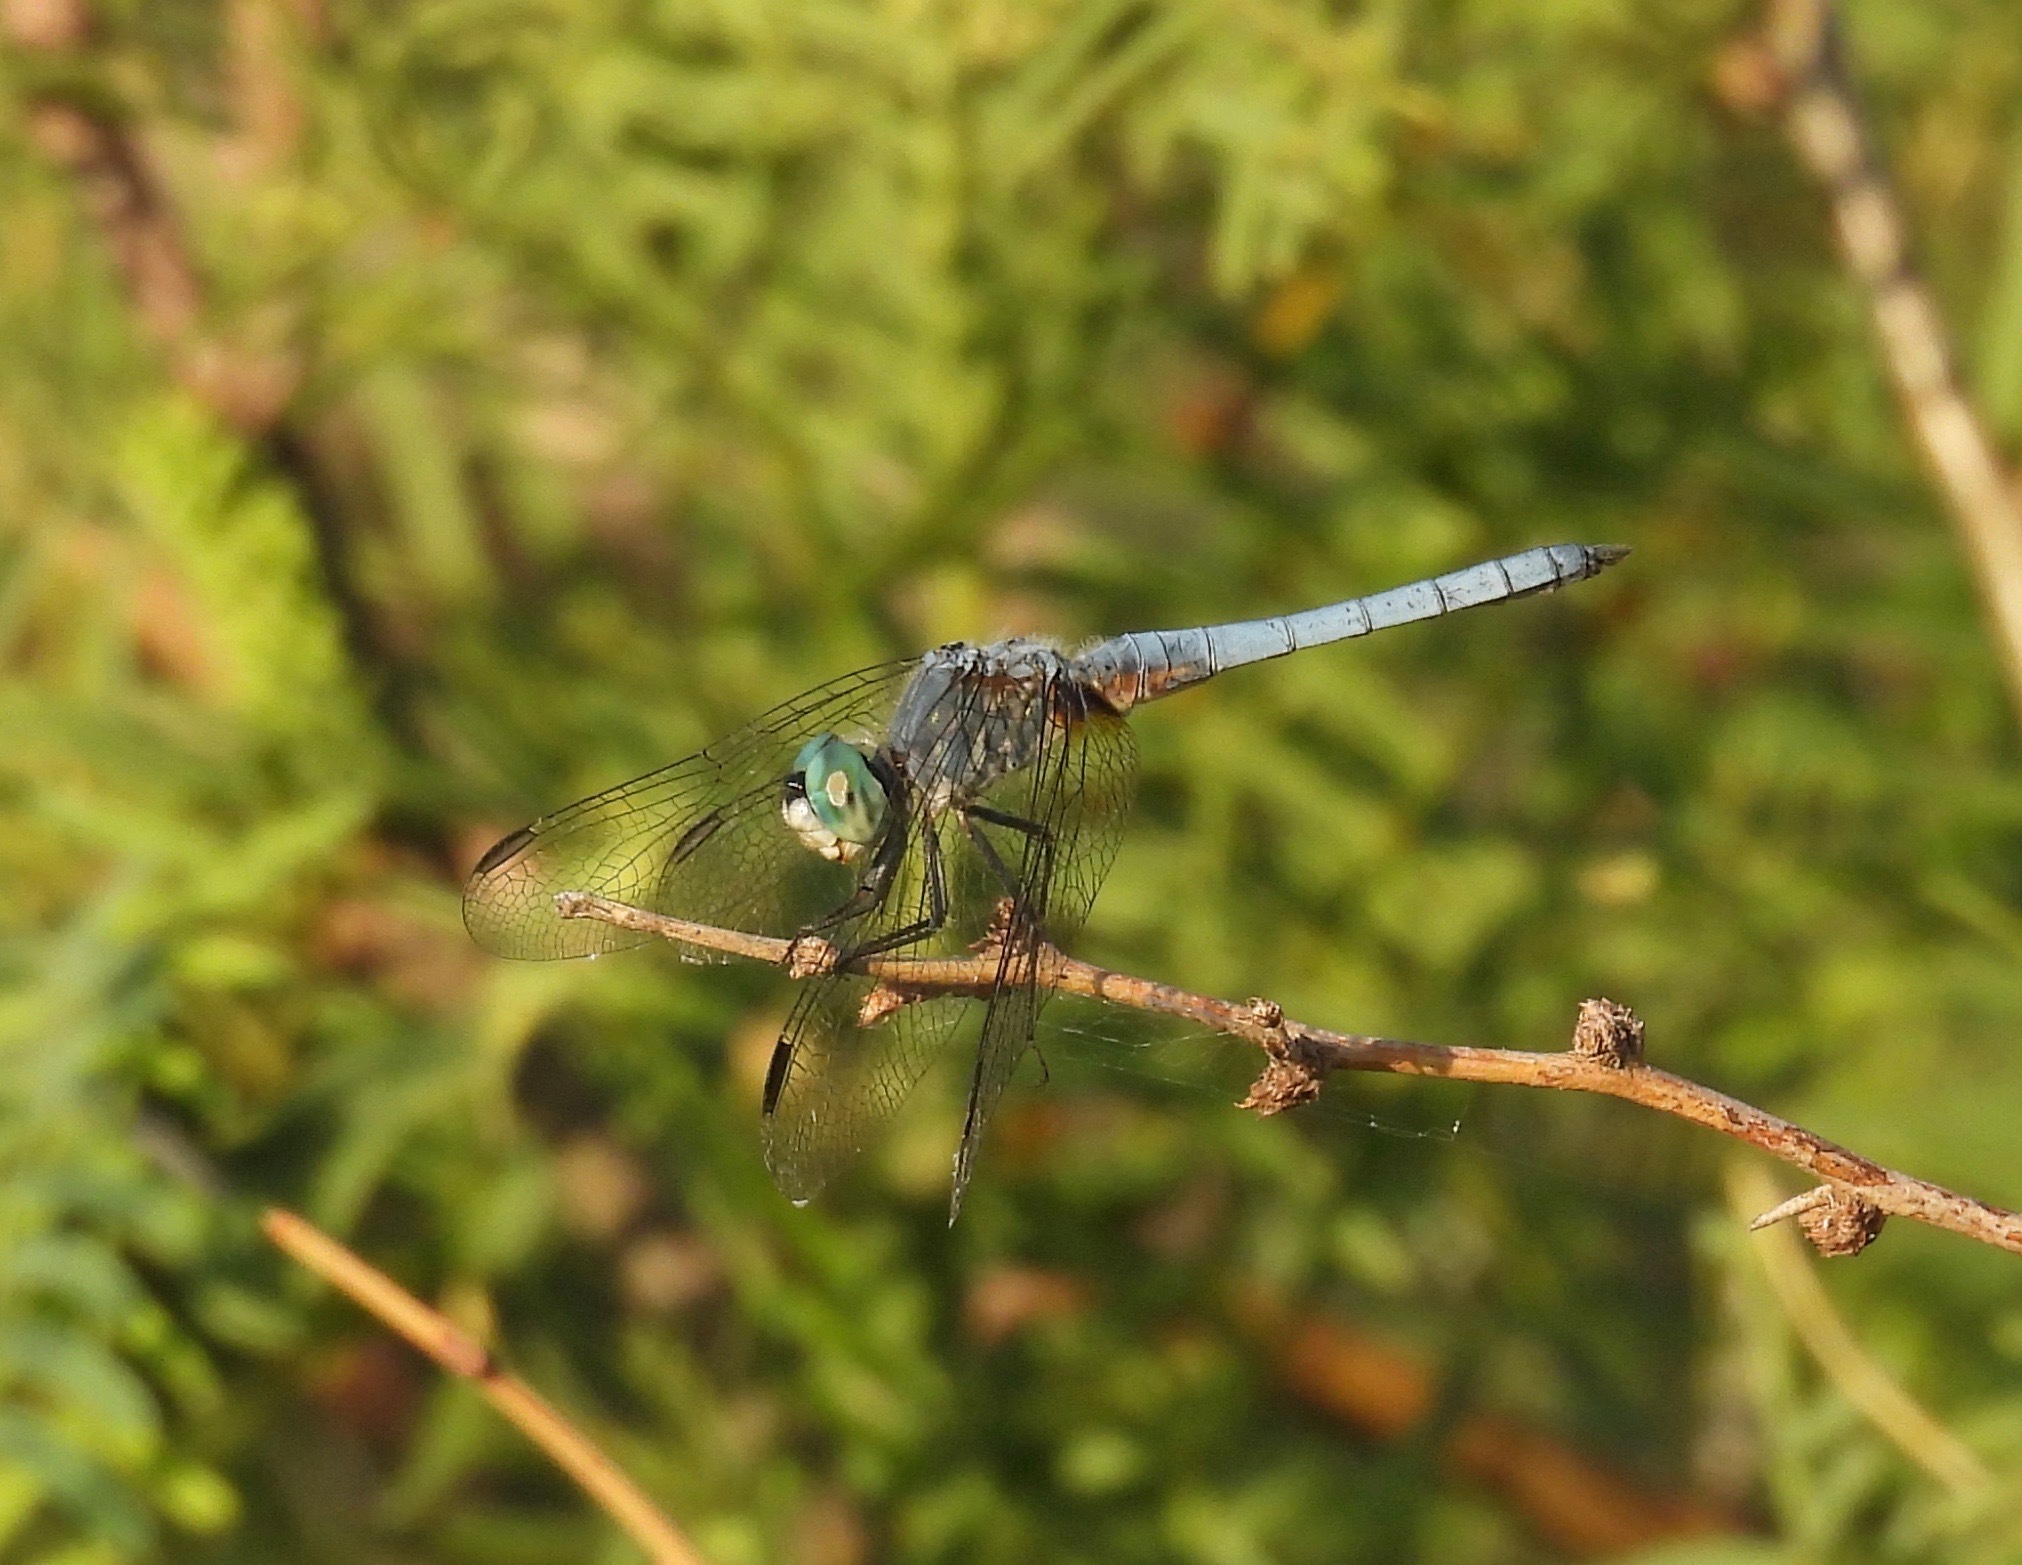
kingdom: Animalia
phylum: Arthropoda
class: Insecta
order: Odonata
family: Libellulidae
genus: Pachydiplax
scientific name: Pachydiplax longipennis
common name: Blue dasher
